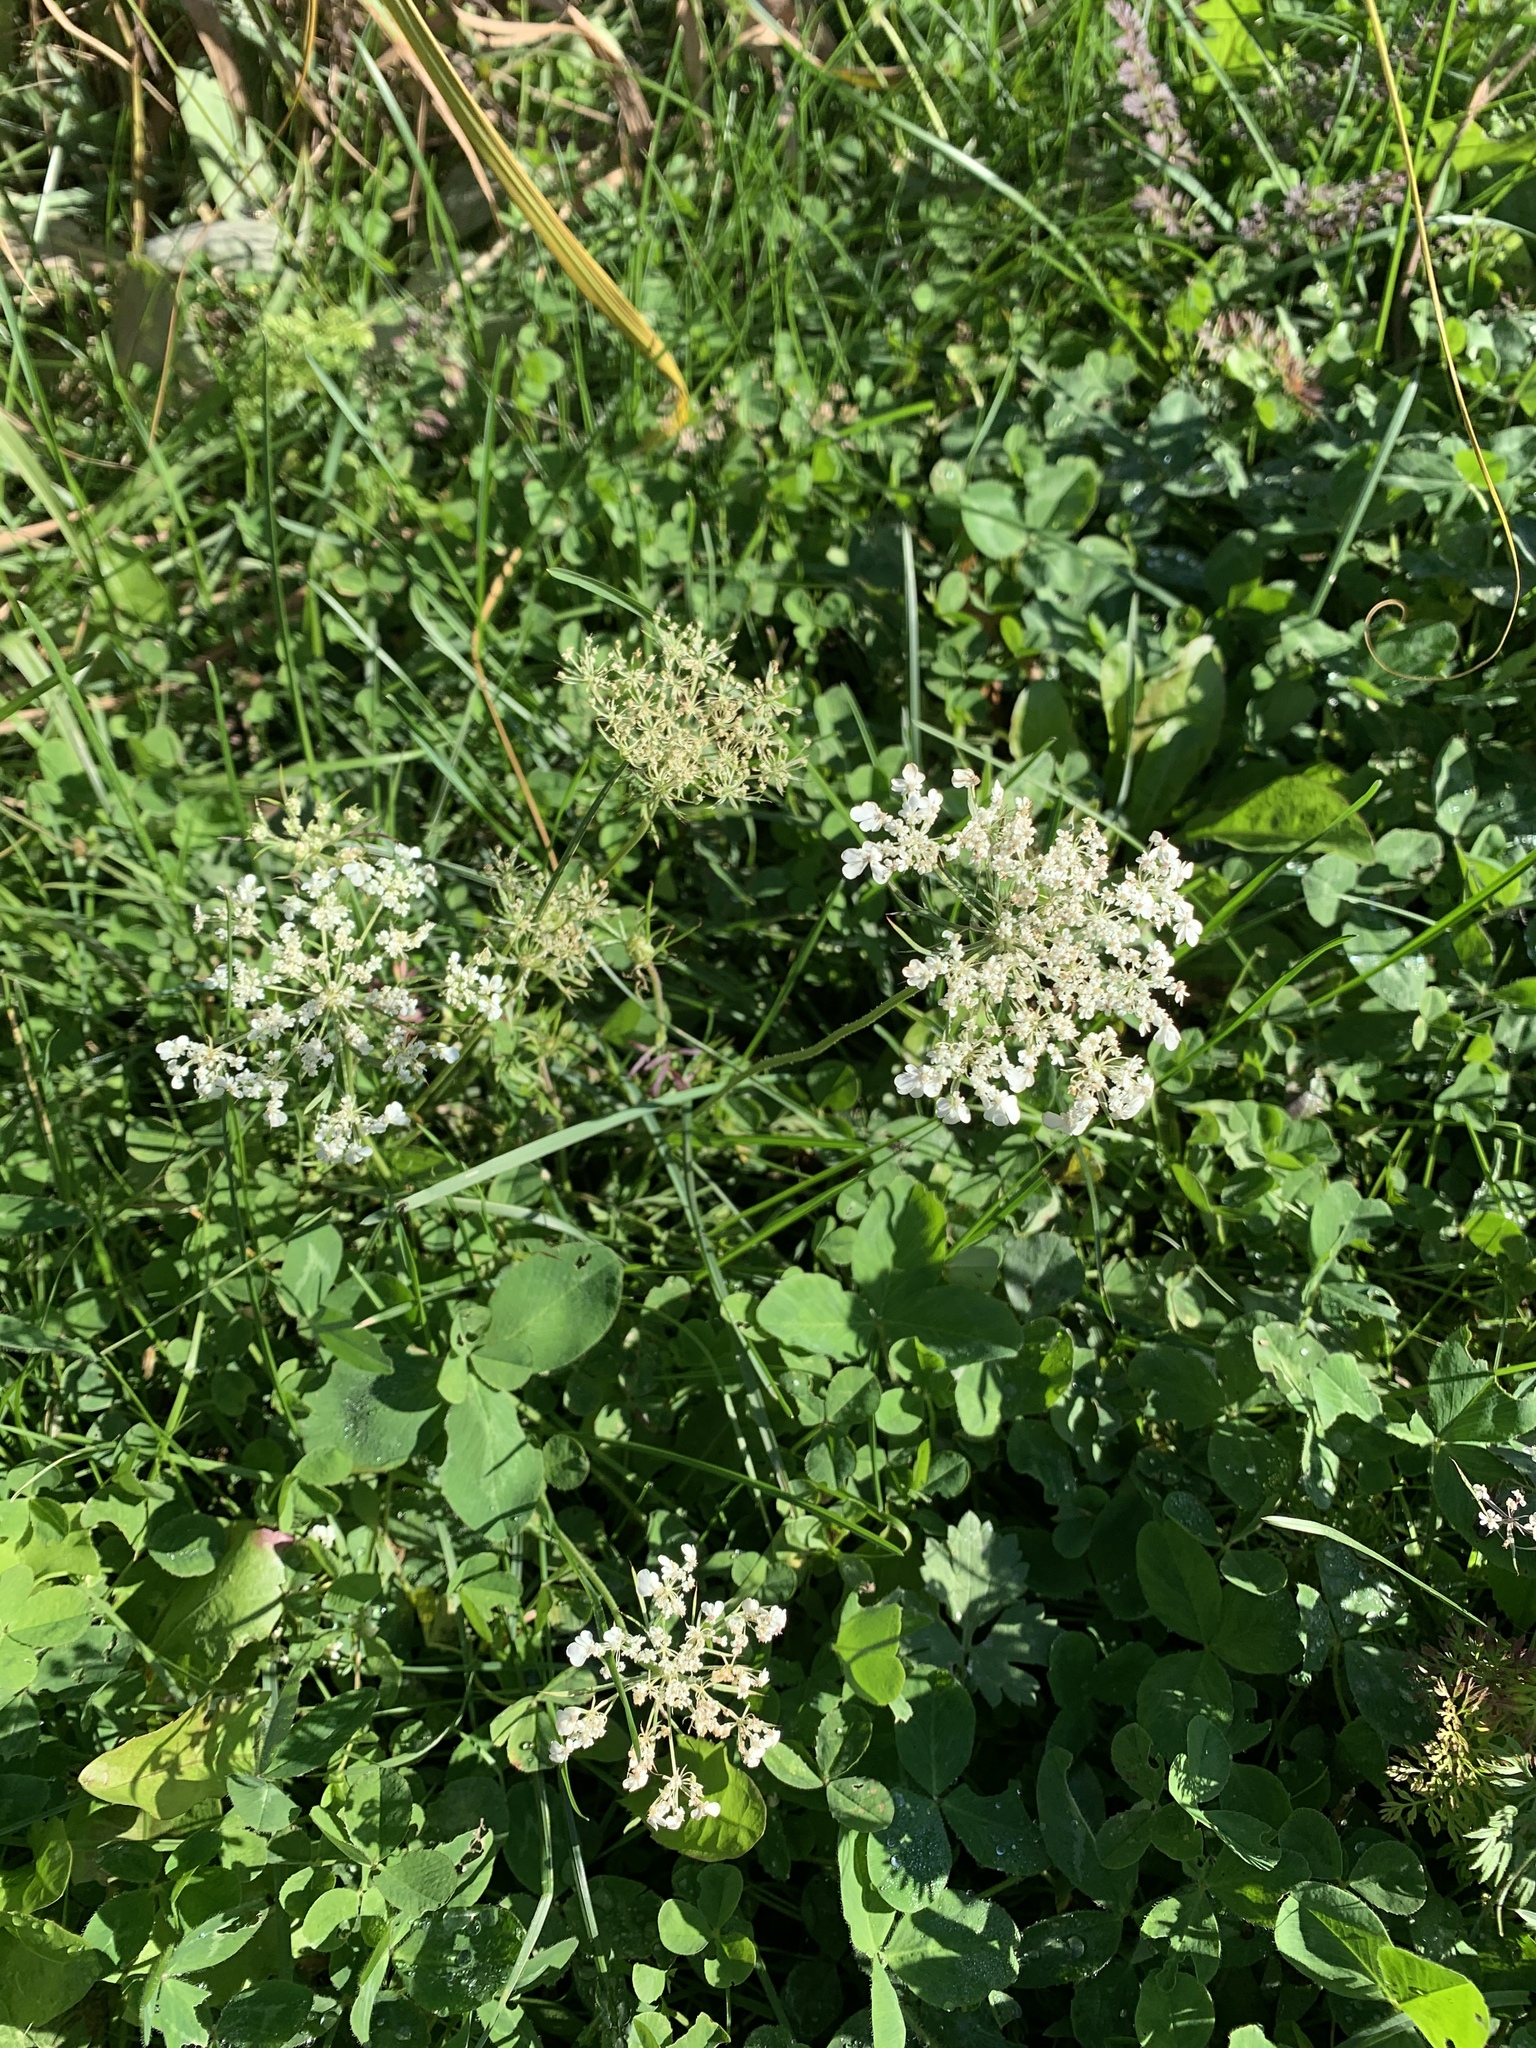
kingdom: Plantae
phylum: Tracheophyta
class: Magnoliopsida
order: Apiales
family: Apiaceae
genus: Daucus
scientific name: Daucus carota
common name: Wild carrot
